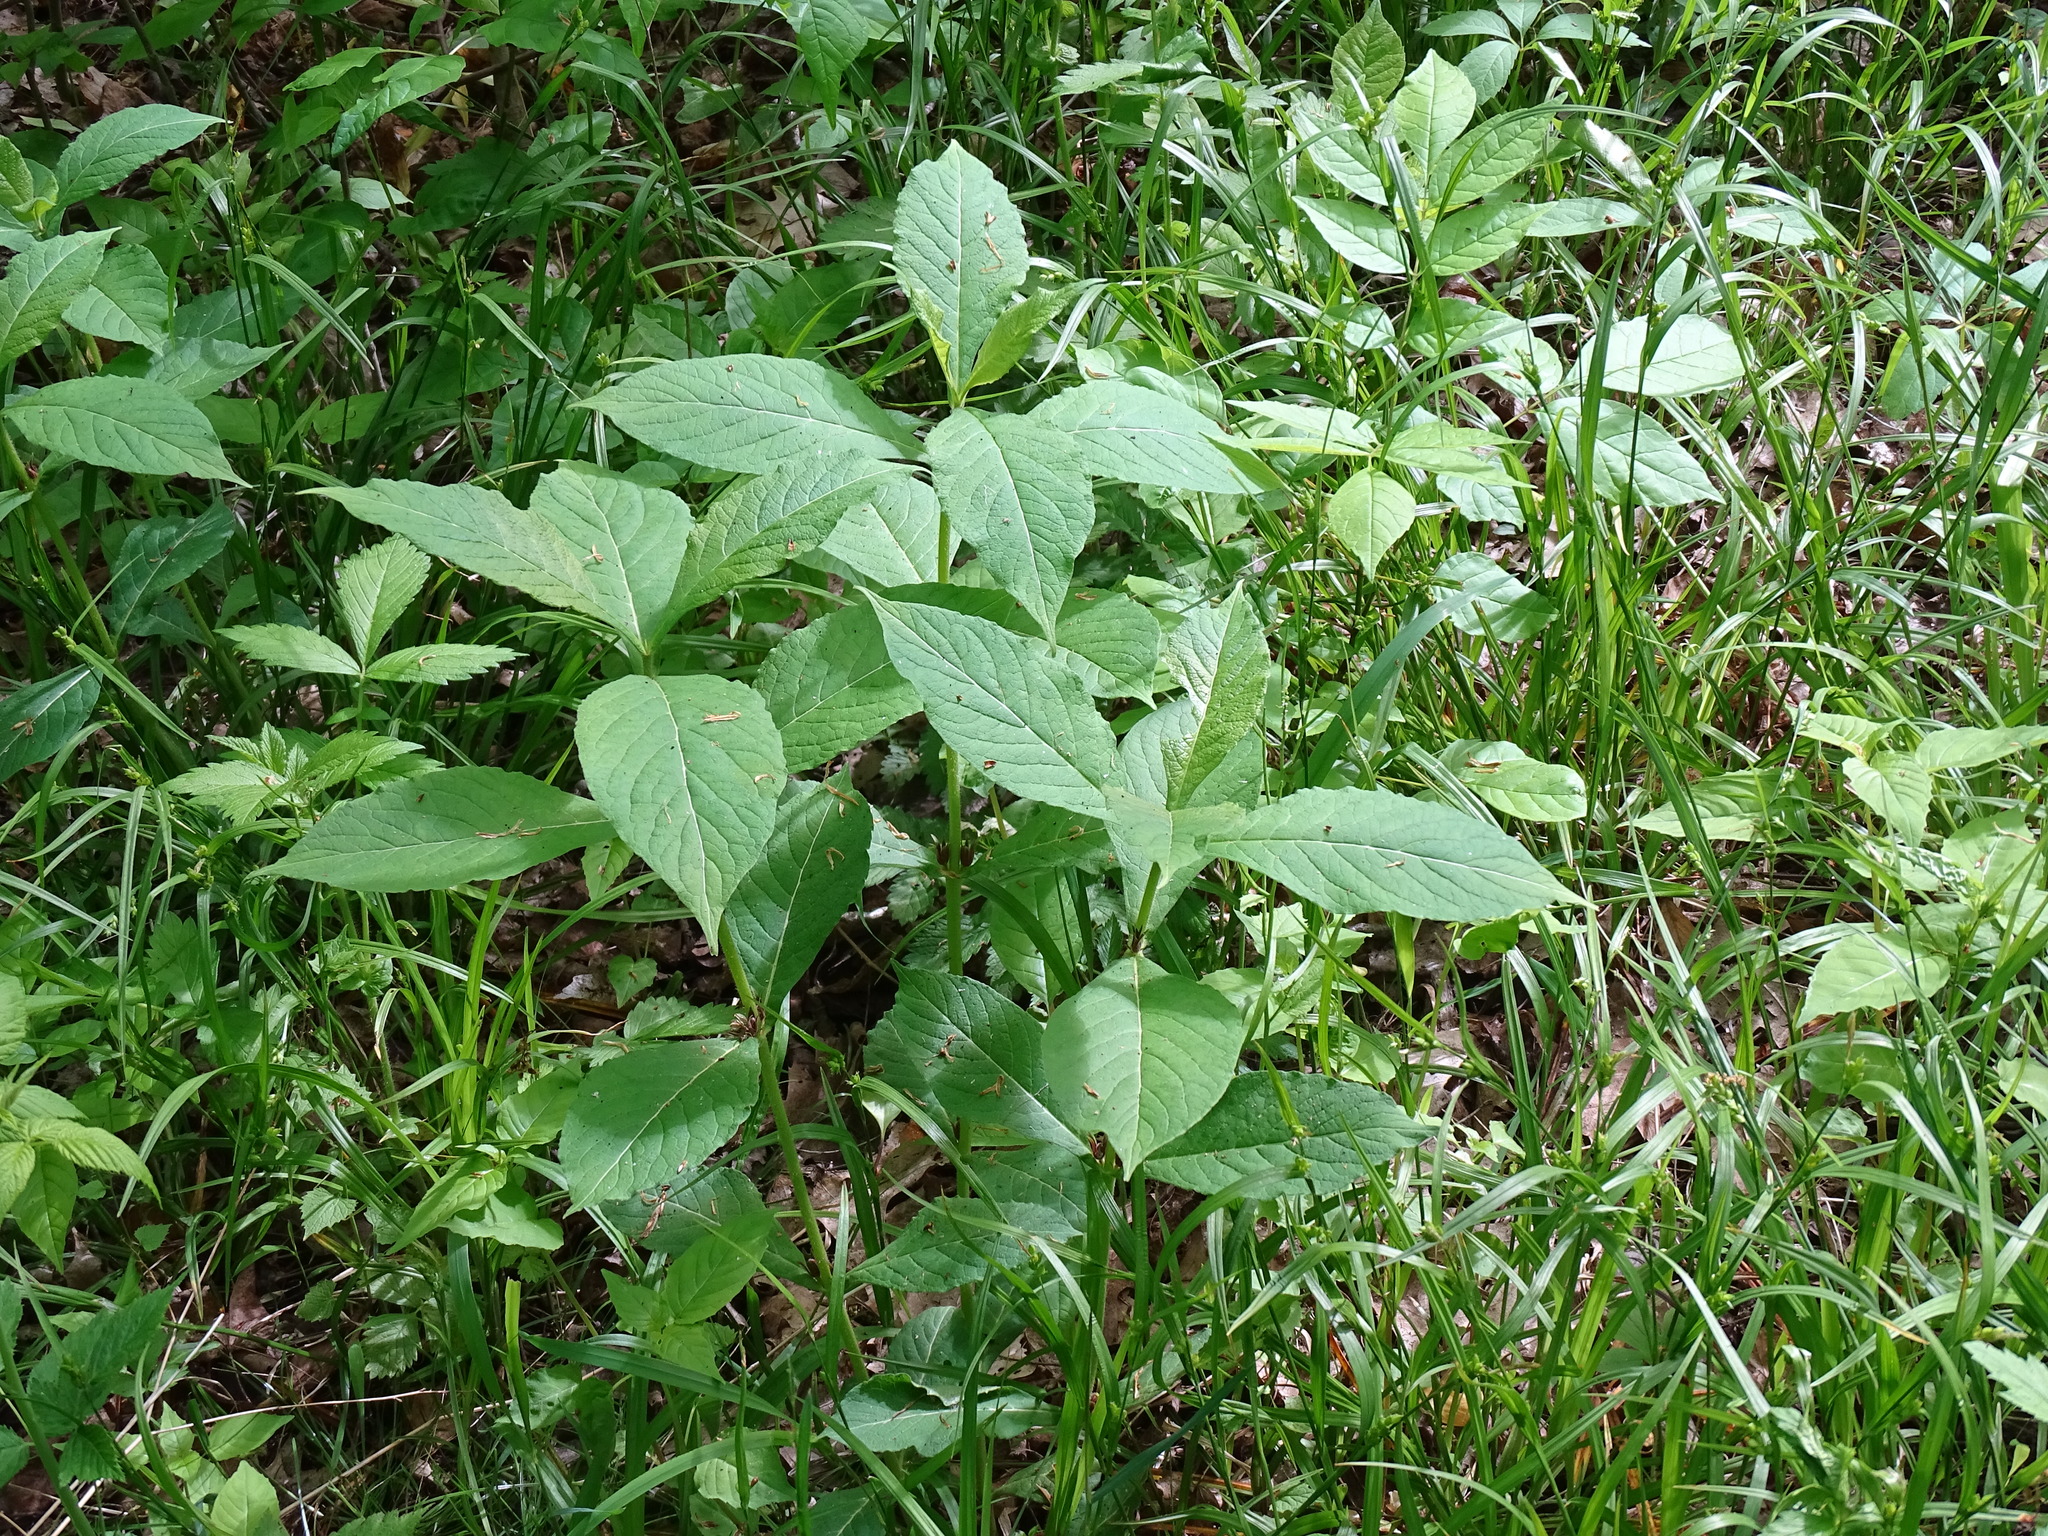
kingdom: Plantae
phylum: Tracheophyta
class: Magnoliopsida
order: Dipsacales
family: Caprifoliaceae
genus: Triosteum
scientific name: Triosteum aurantiacum
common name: Coffee tinker's-weed
